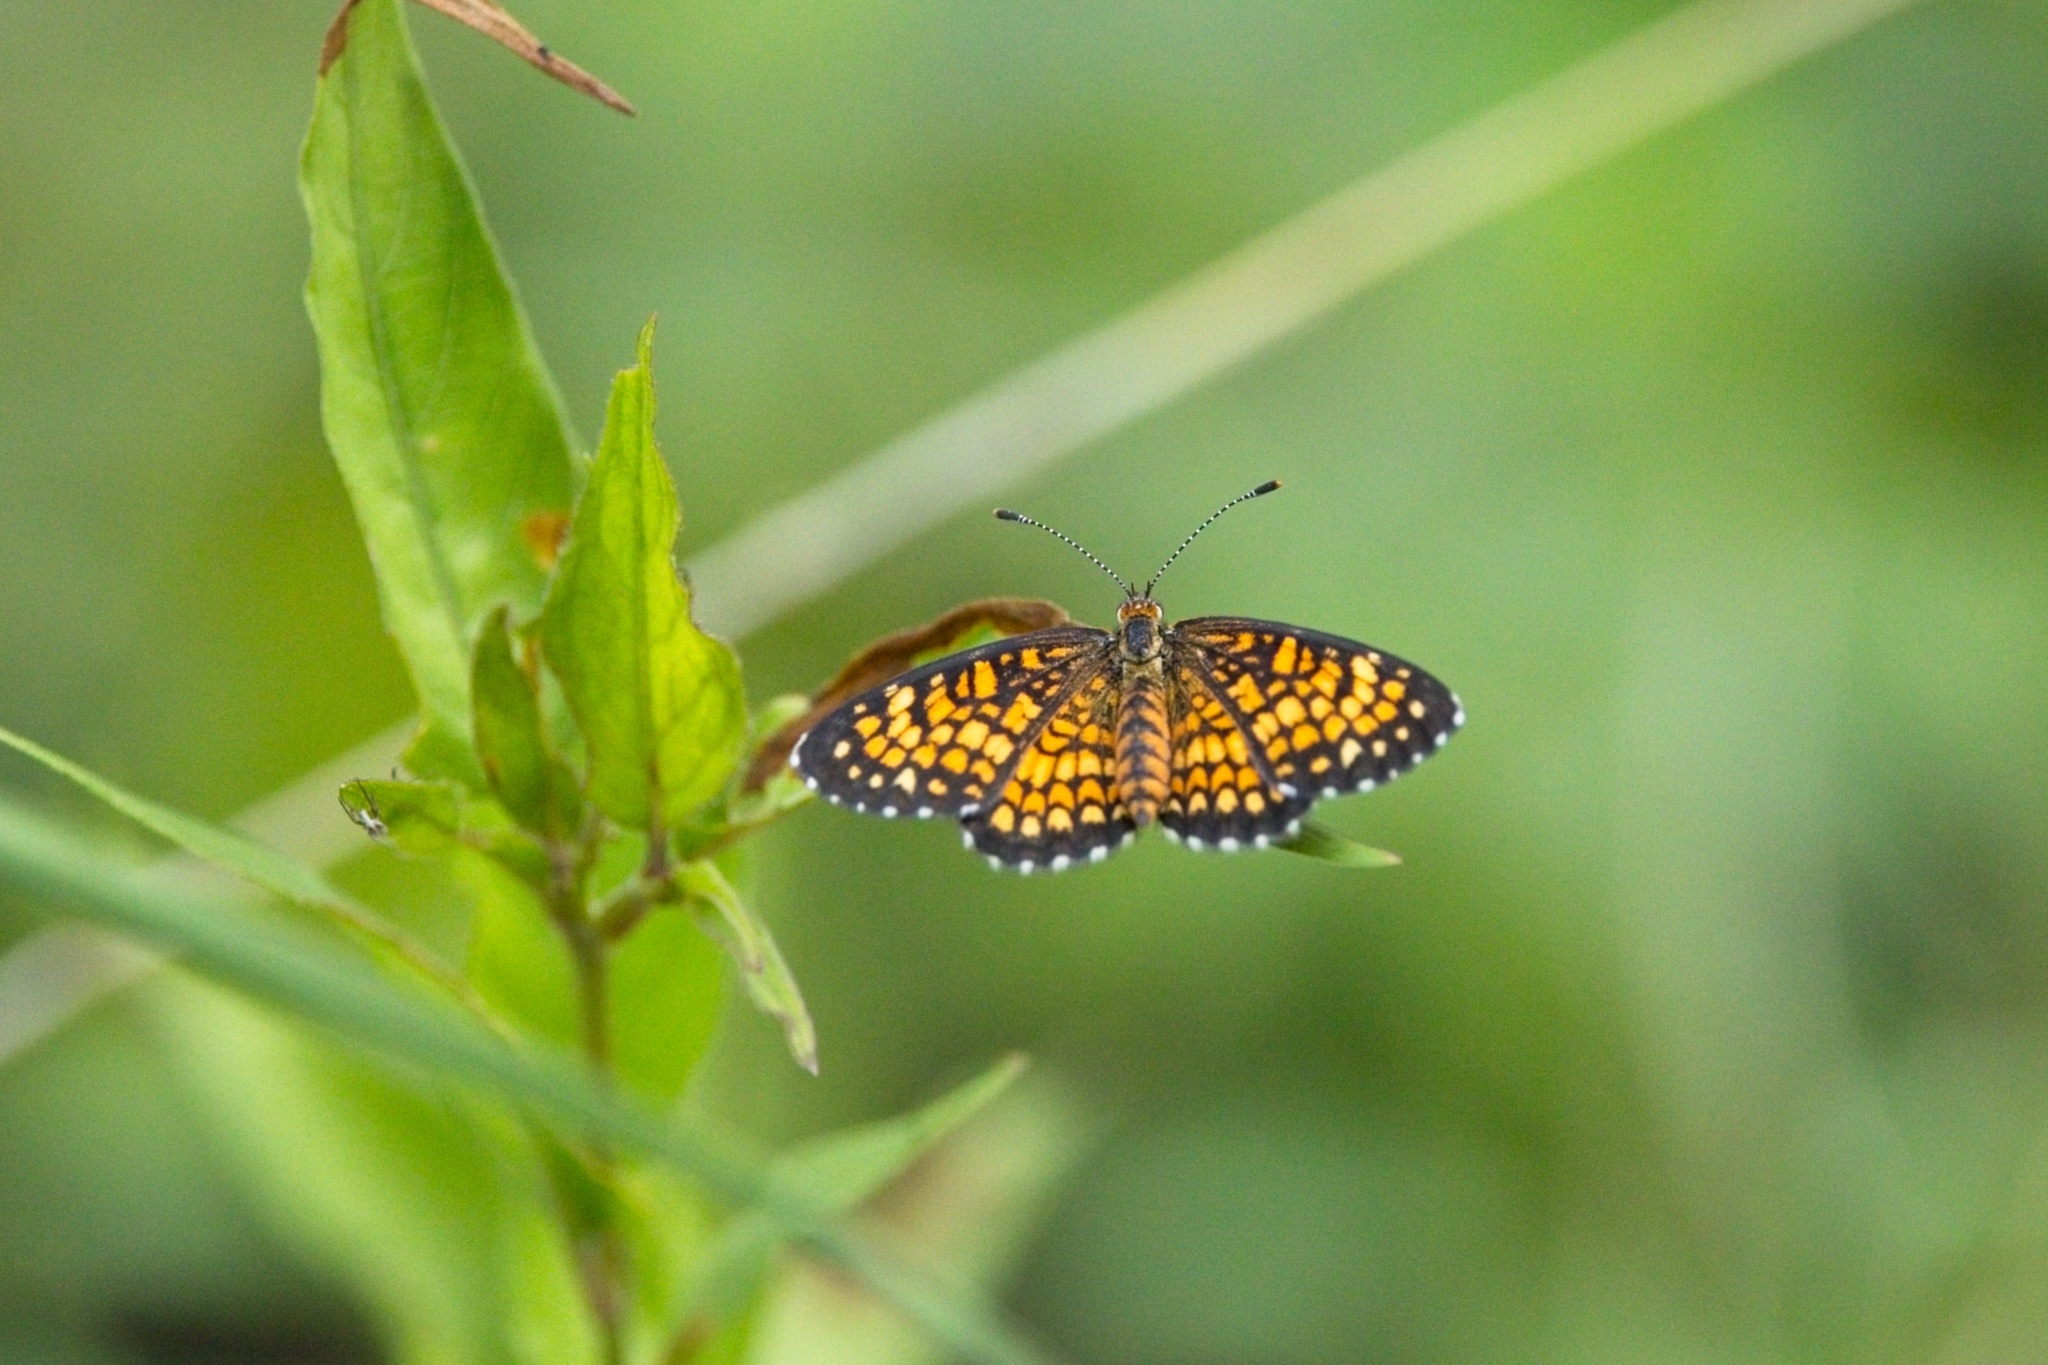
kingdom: Animalia
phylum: Arthropoda
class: Insecta
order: Lepidoptera
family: Nymphalidae
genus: Texola
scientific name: Texola
